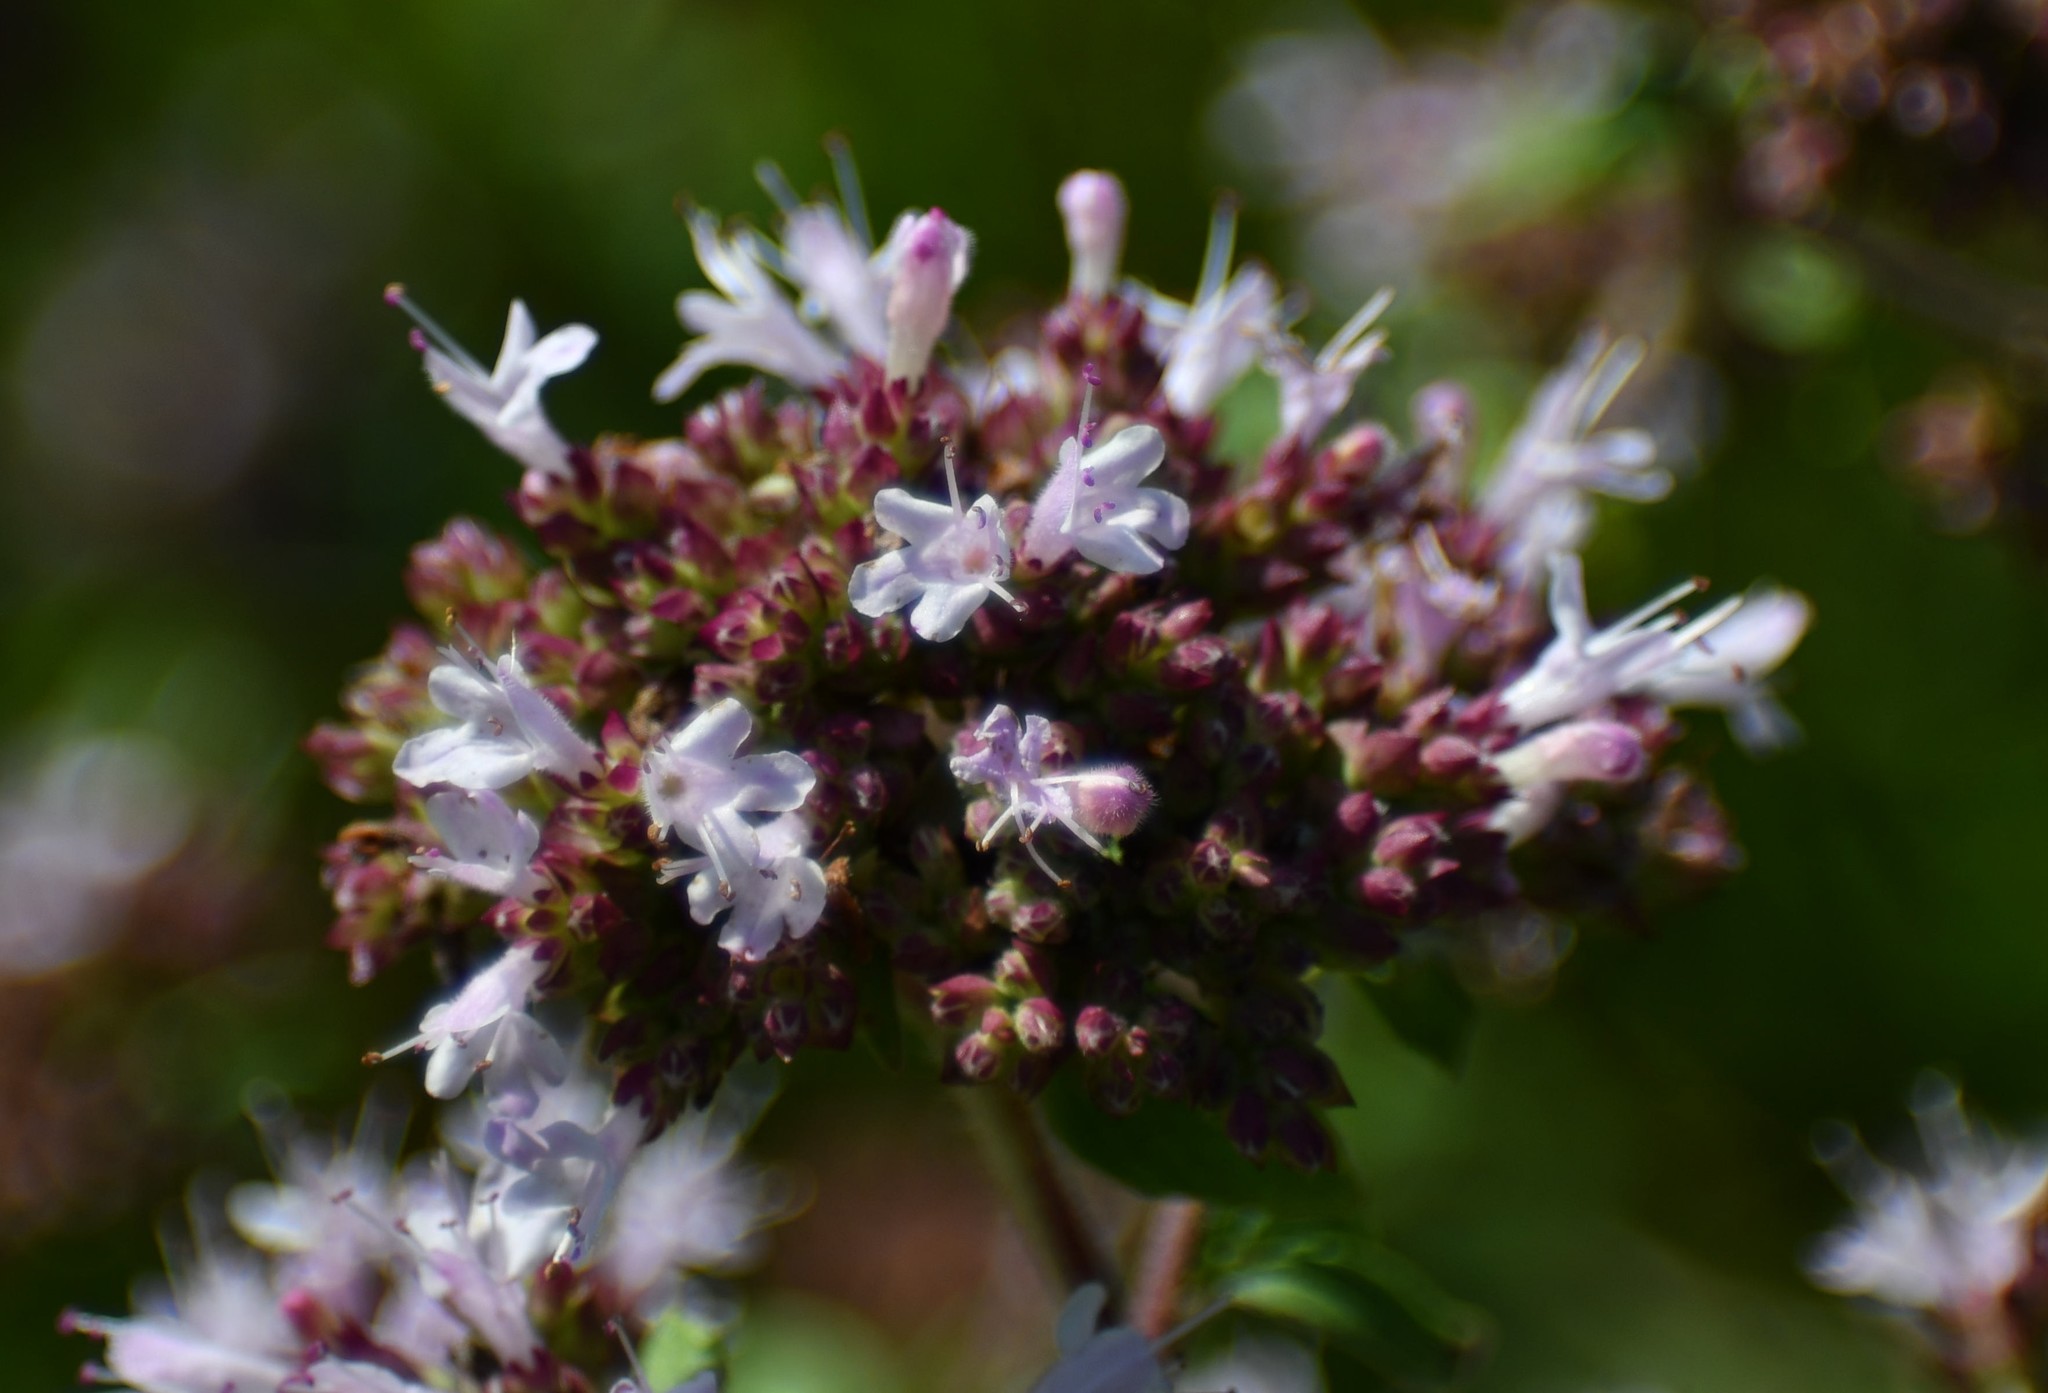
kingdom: Plantae
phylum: Tracheophyta
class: Magnoliopsida
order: Lamiales
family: Lamiaceae
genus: Origanum
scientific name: Origanum vulgare
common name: Wild marjoram
